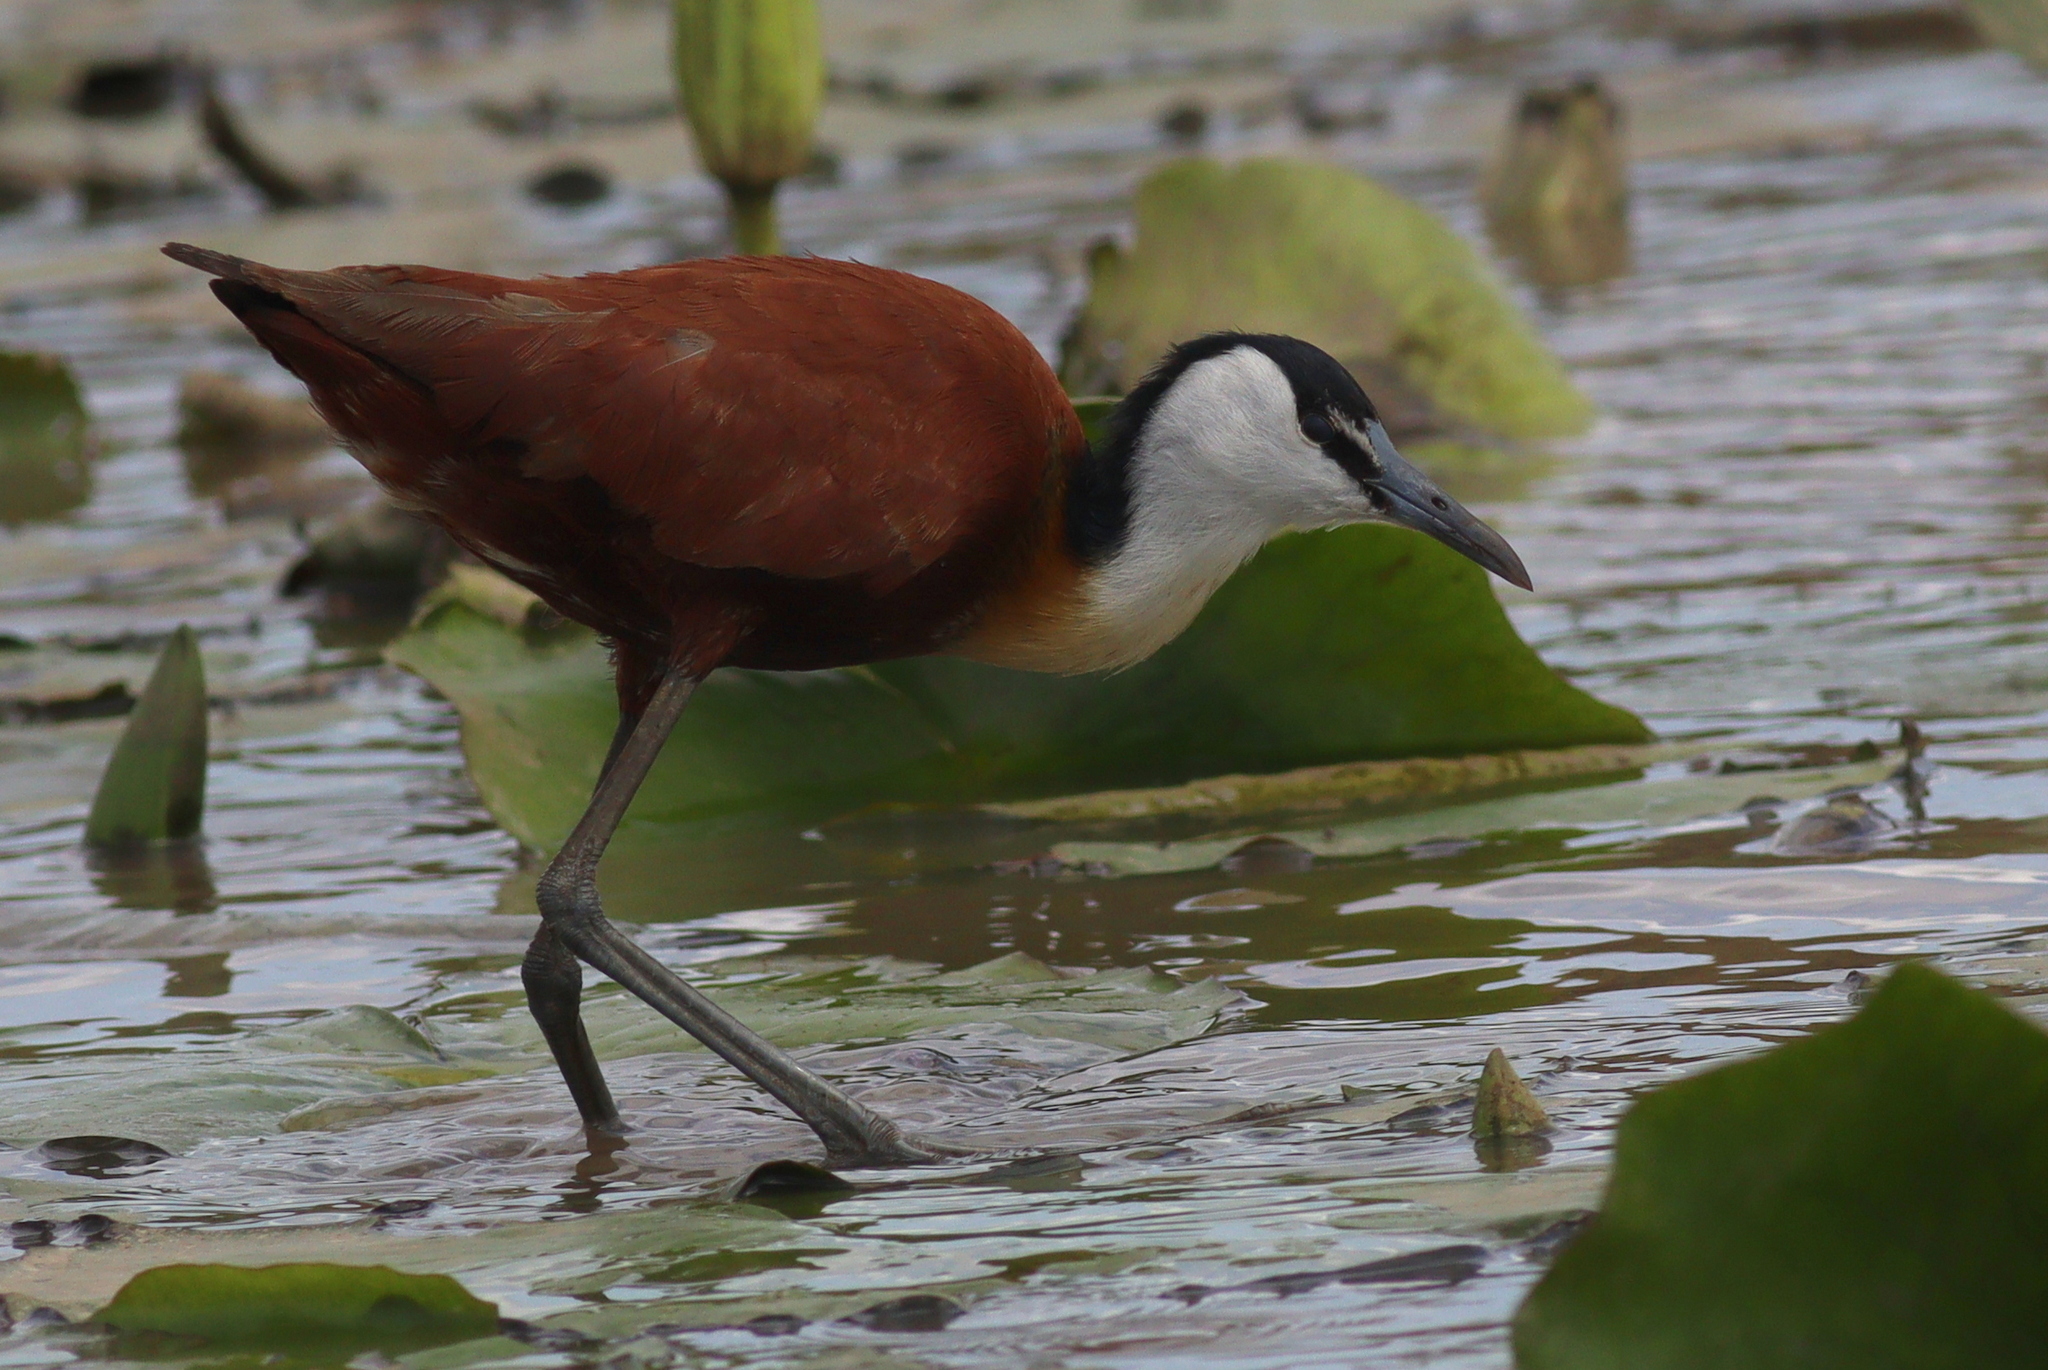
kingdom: Animalia
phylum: Chordata
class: Aves
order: Charadriiformes
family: Jacanidae
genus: Actophilornis
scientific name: Actophilornis africanus
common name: African jacana
